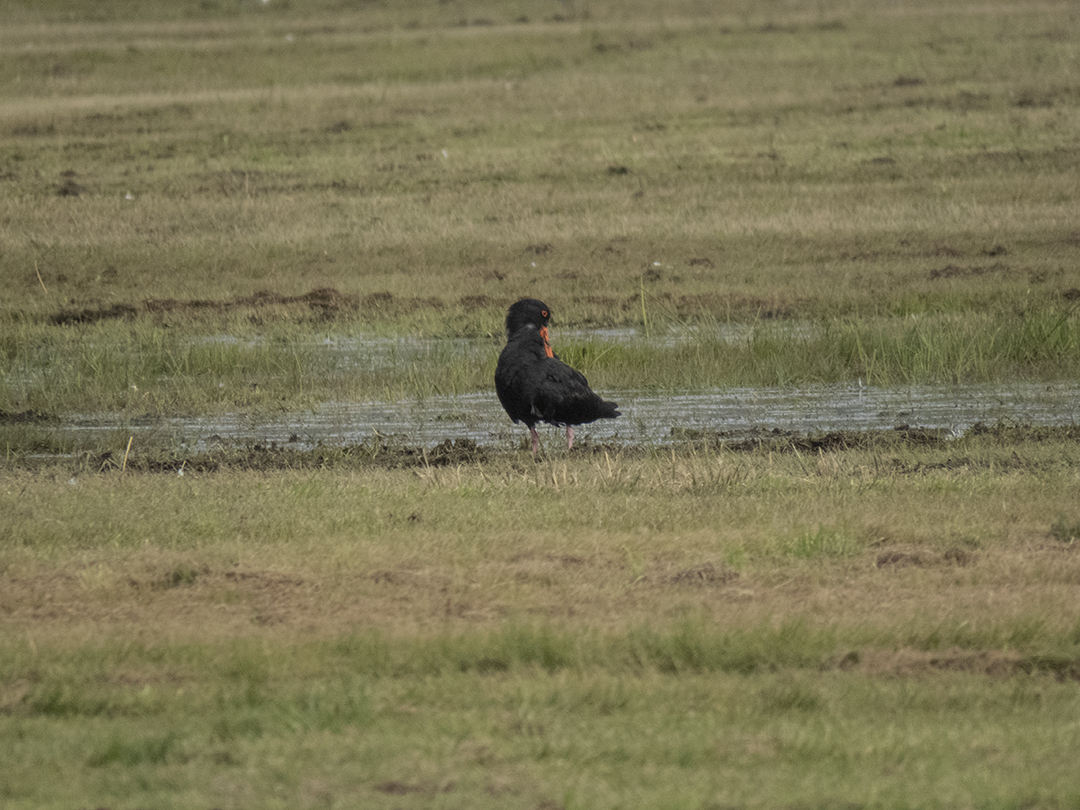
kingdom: Animalia
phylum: Chordata
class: Aves
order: Charadriiformes
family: Haematopodidae
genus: Haematopus
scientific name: Haematopus unicolor
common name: Variable oystercatcher
